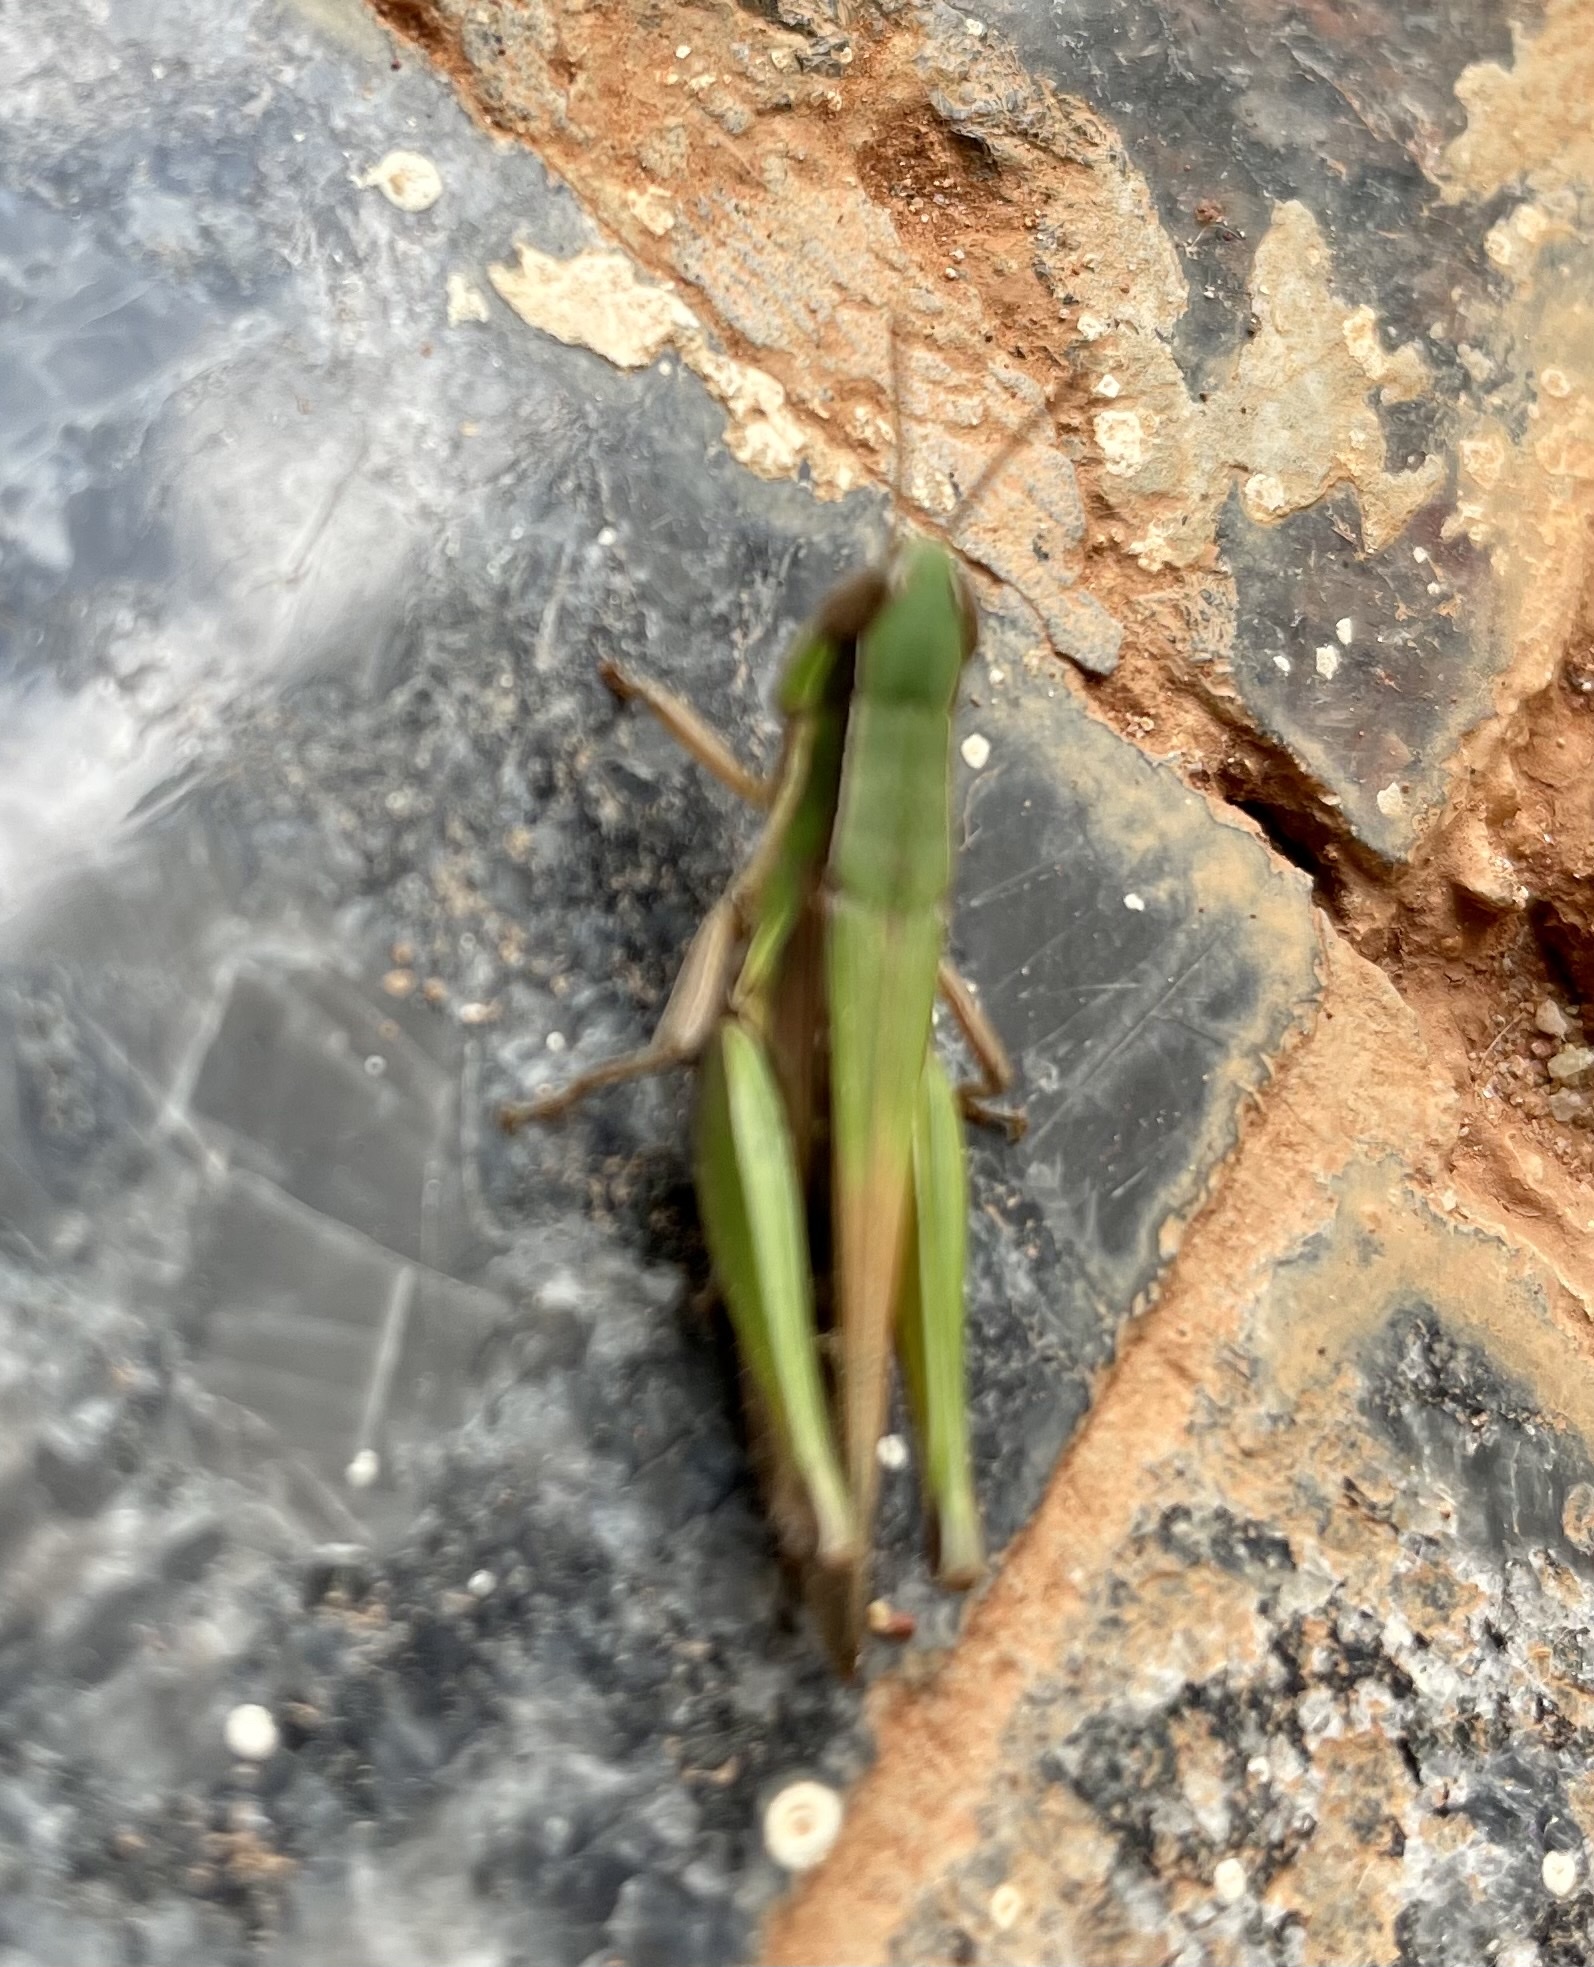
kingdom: Animalia
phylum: Arthropoda
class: Insecta
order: Orthoptera
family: Acrididae
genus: Spathosternum
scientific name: Spathosternum prasiniferum
